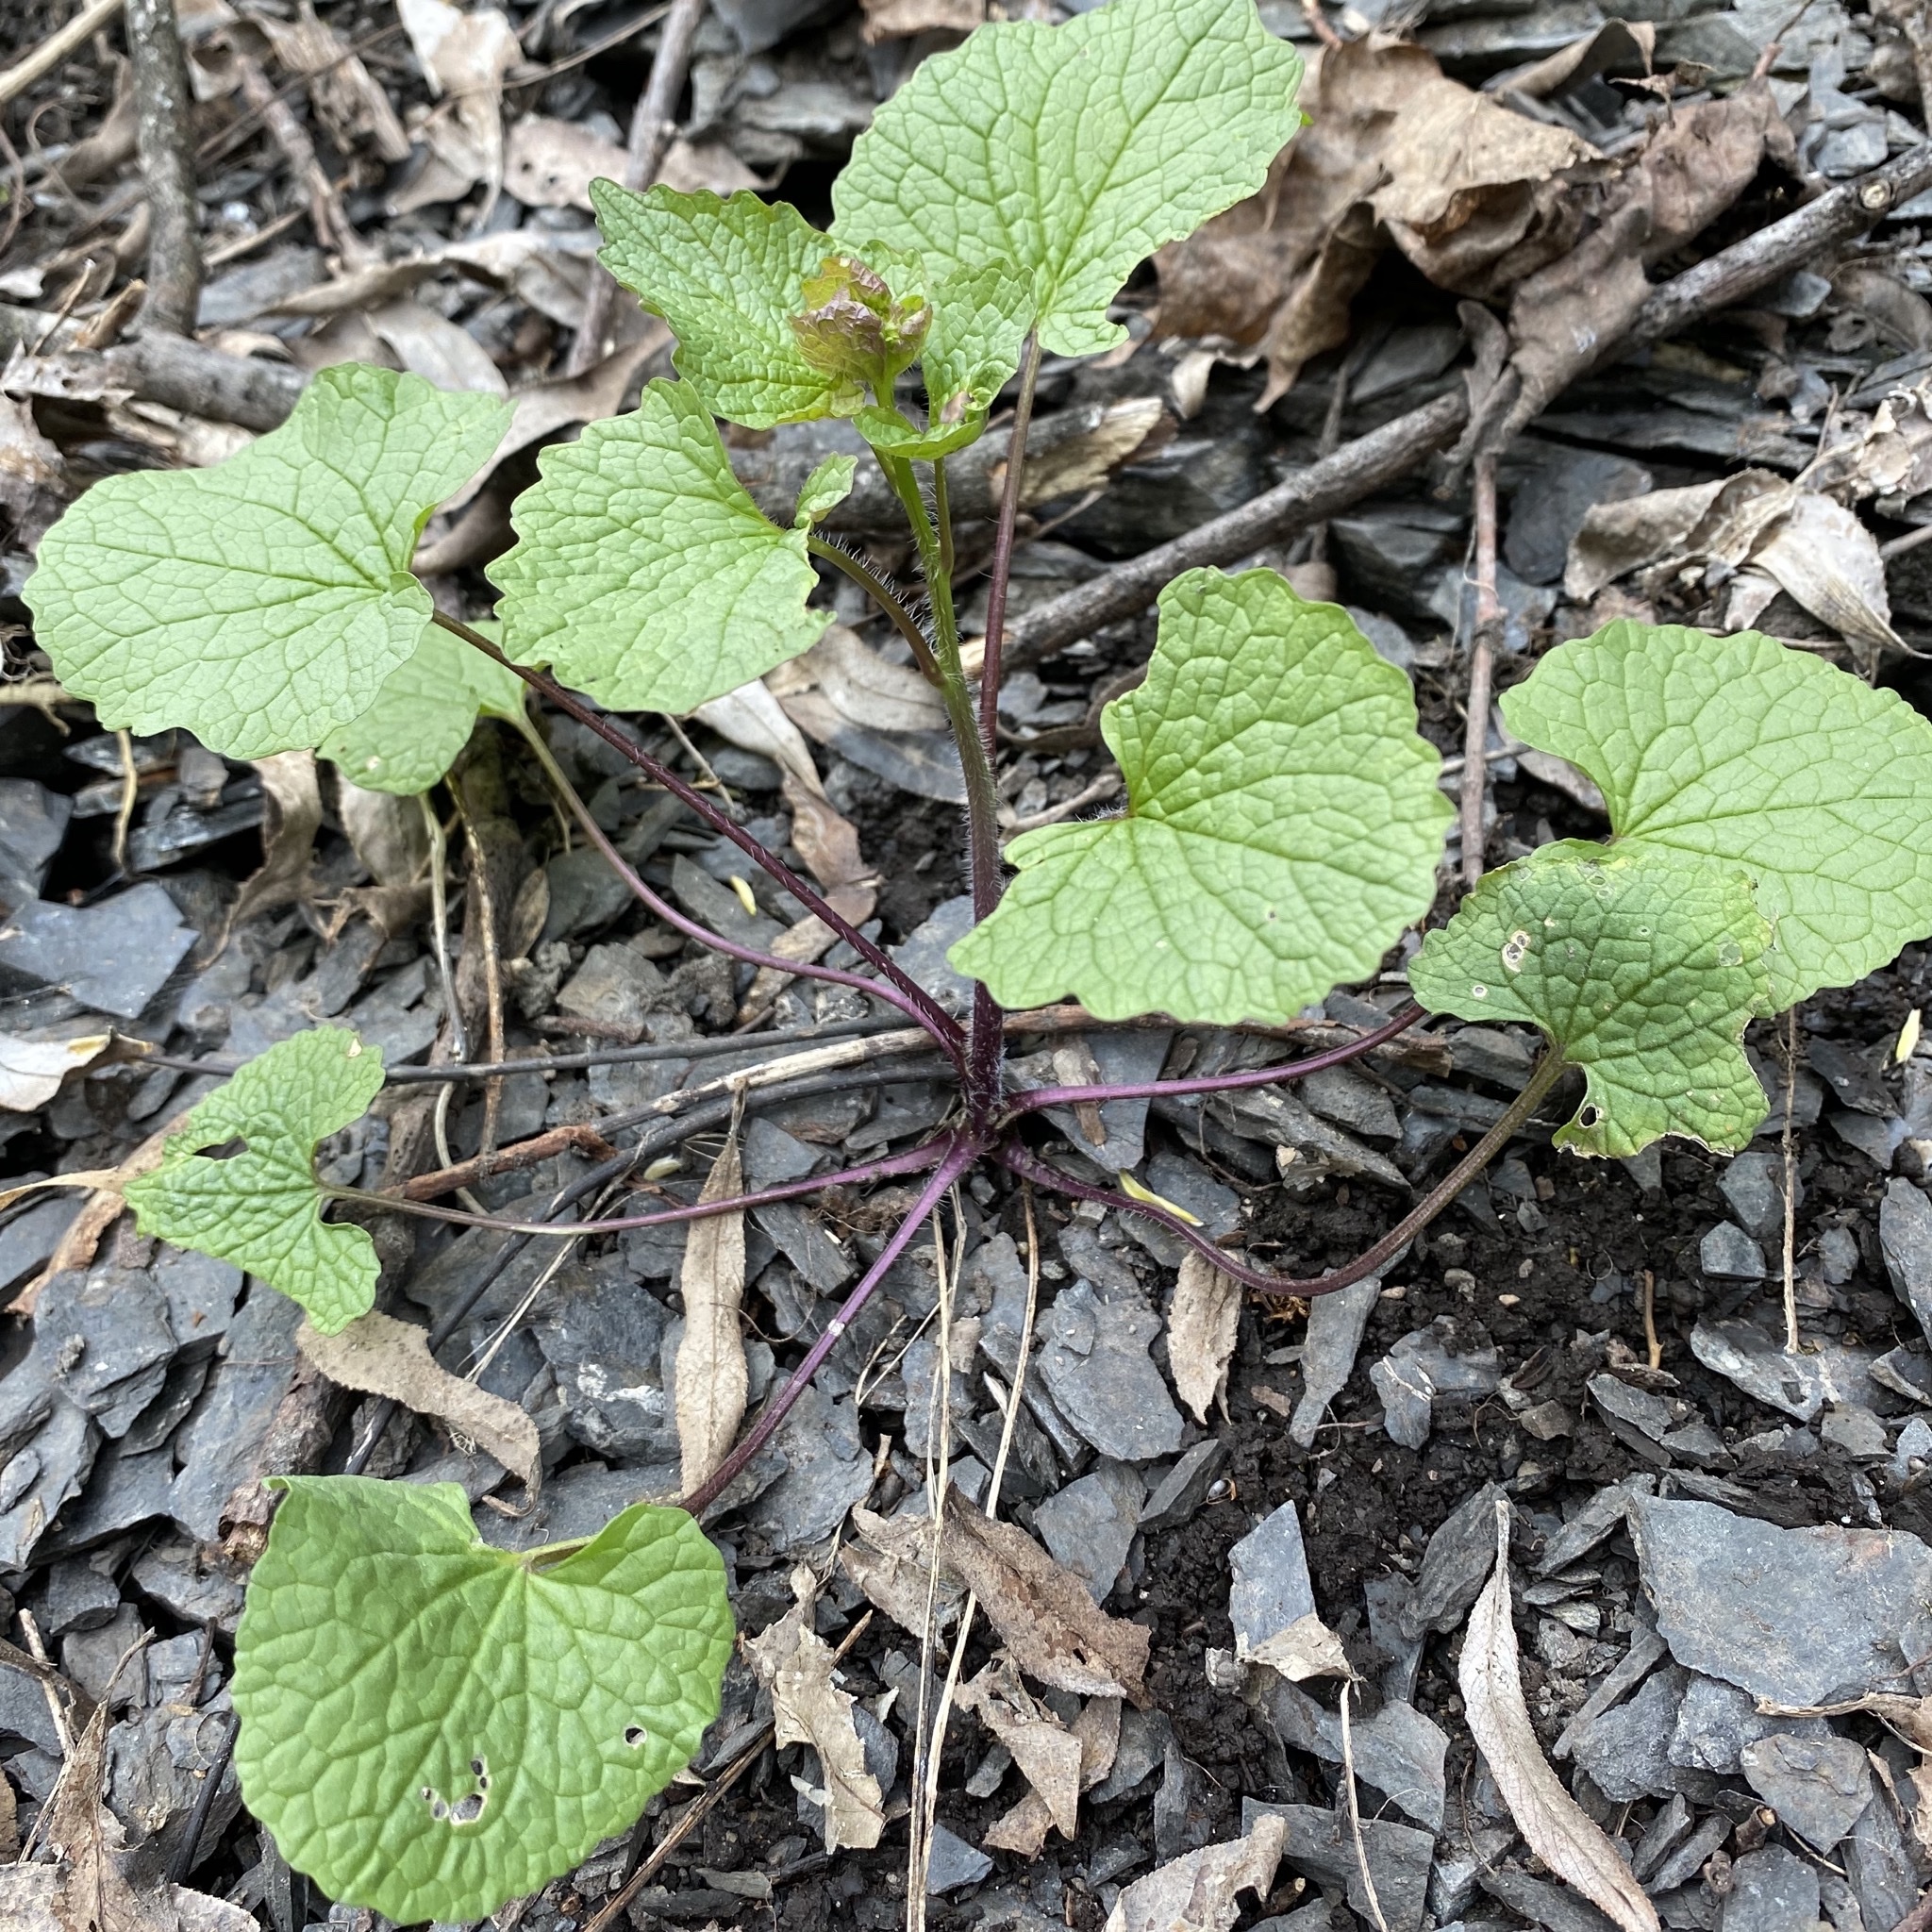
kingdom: Plantae
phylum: Tracheophyta
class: Magnoliopsida
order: Brassicales
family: Brassicaceae
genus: Alliaria
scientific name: Alliaria petiolata
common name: Garlic mustard
